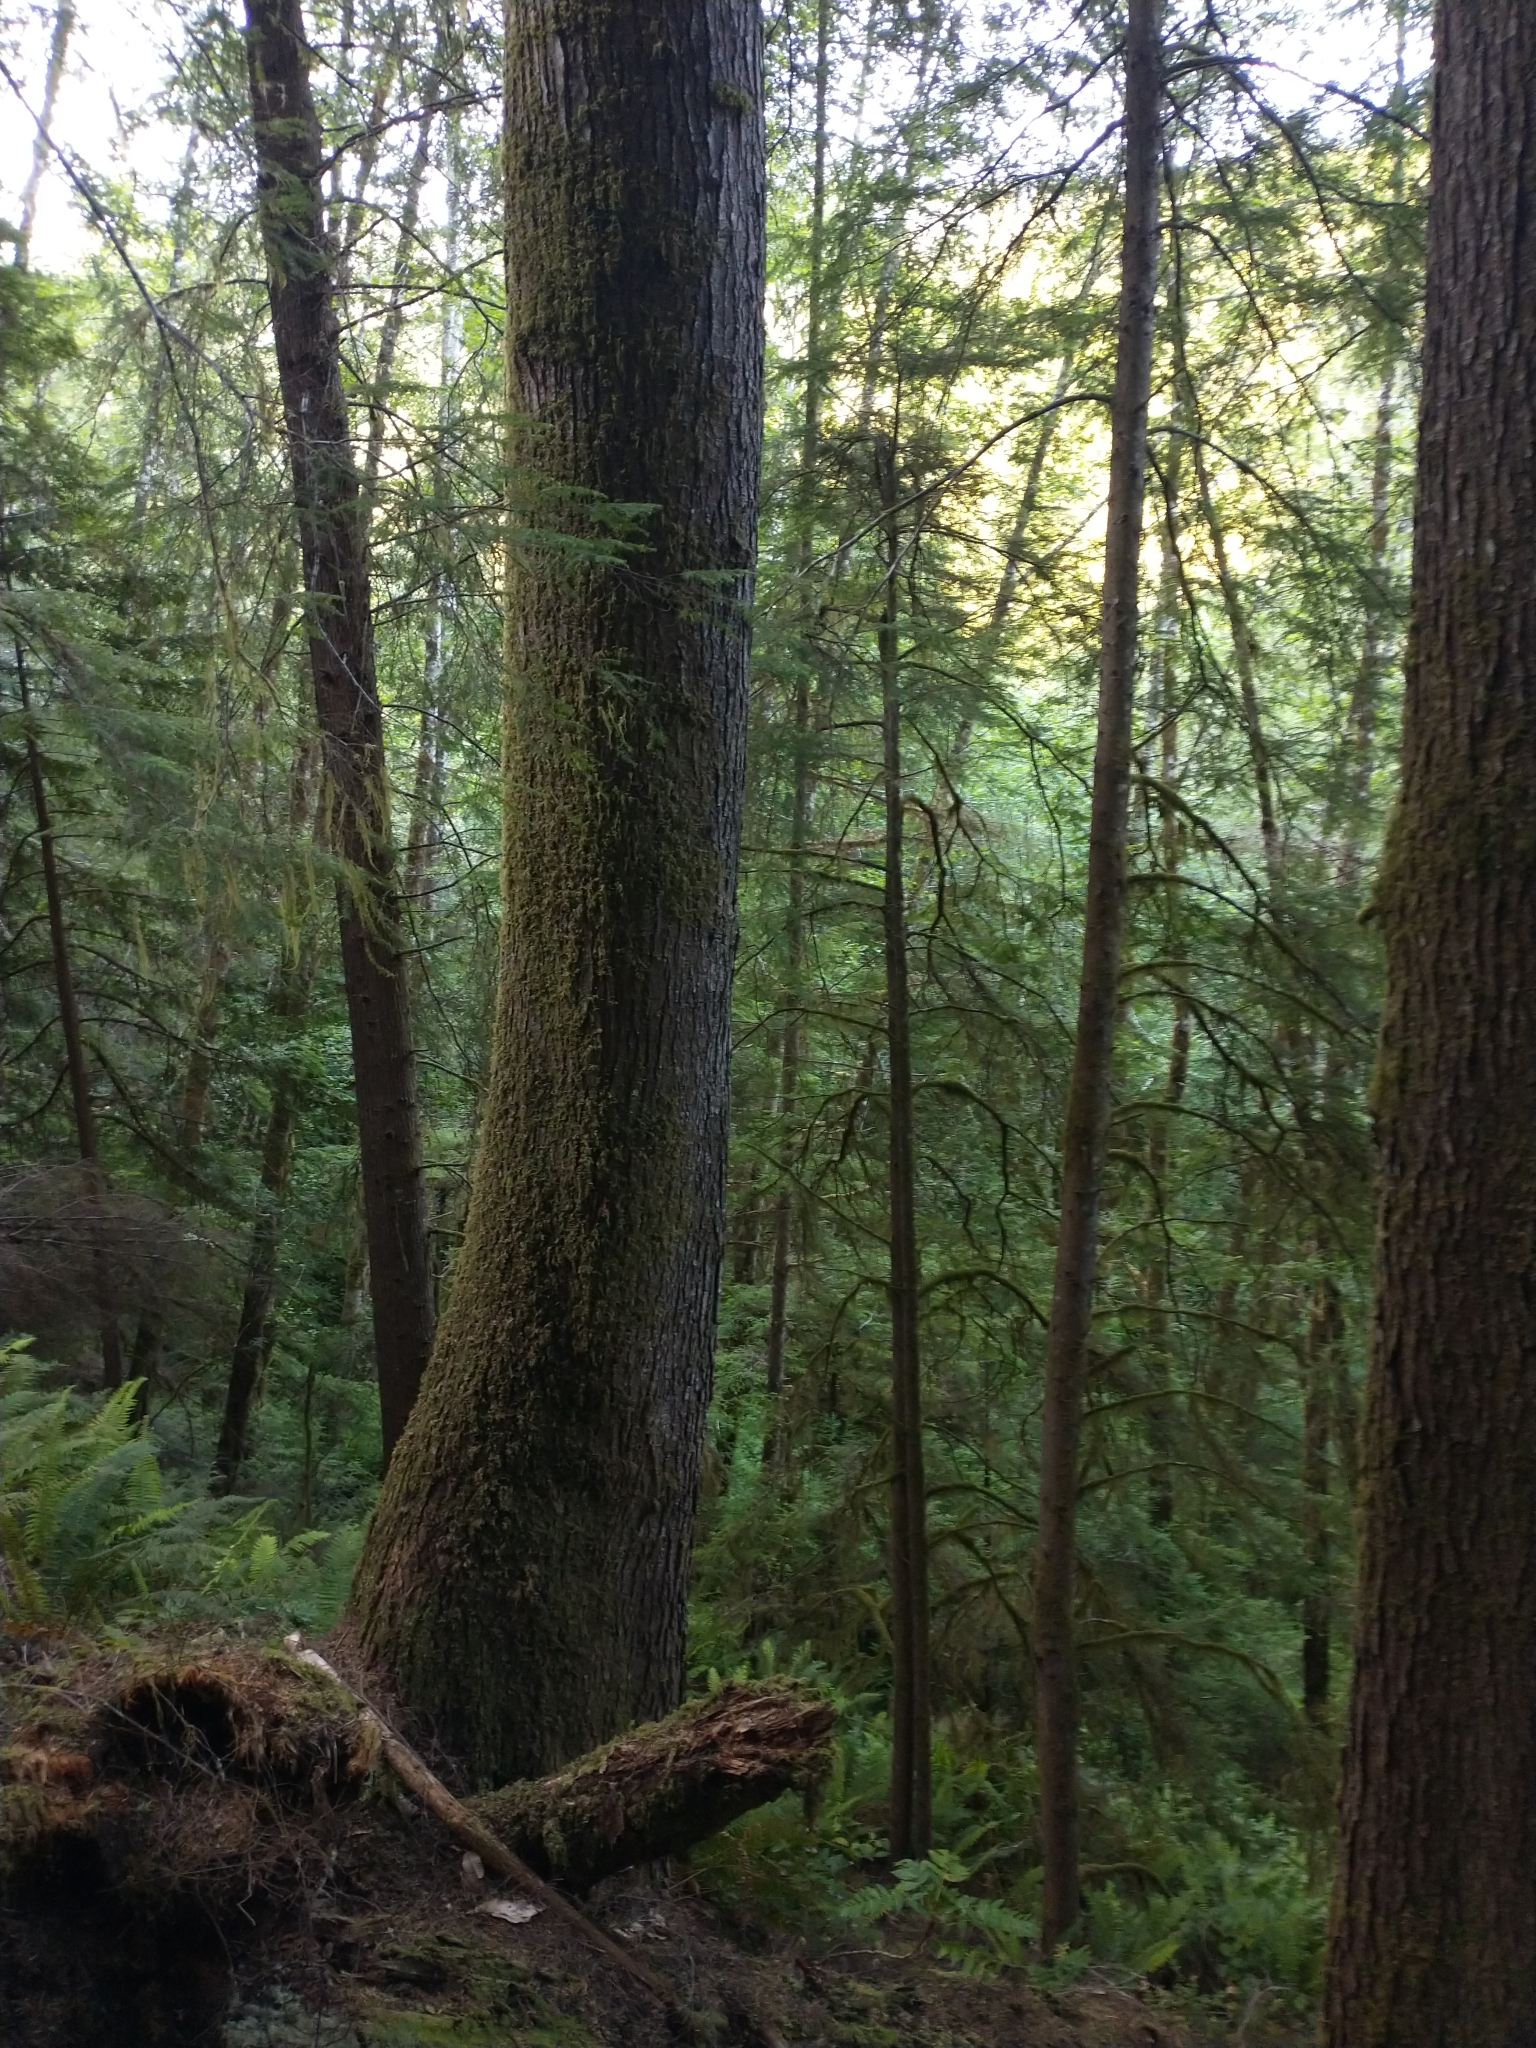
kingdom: Plantae
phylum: Tracheophyta
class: Pinopsida
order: Pinales
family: Pinaceae
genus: Tsuga
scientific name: Tsuga heterophylla
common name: Western hemlock
